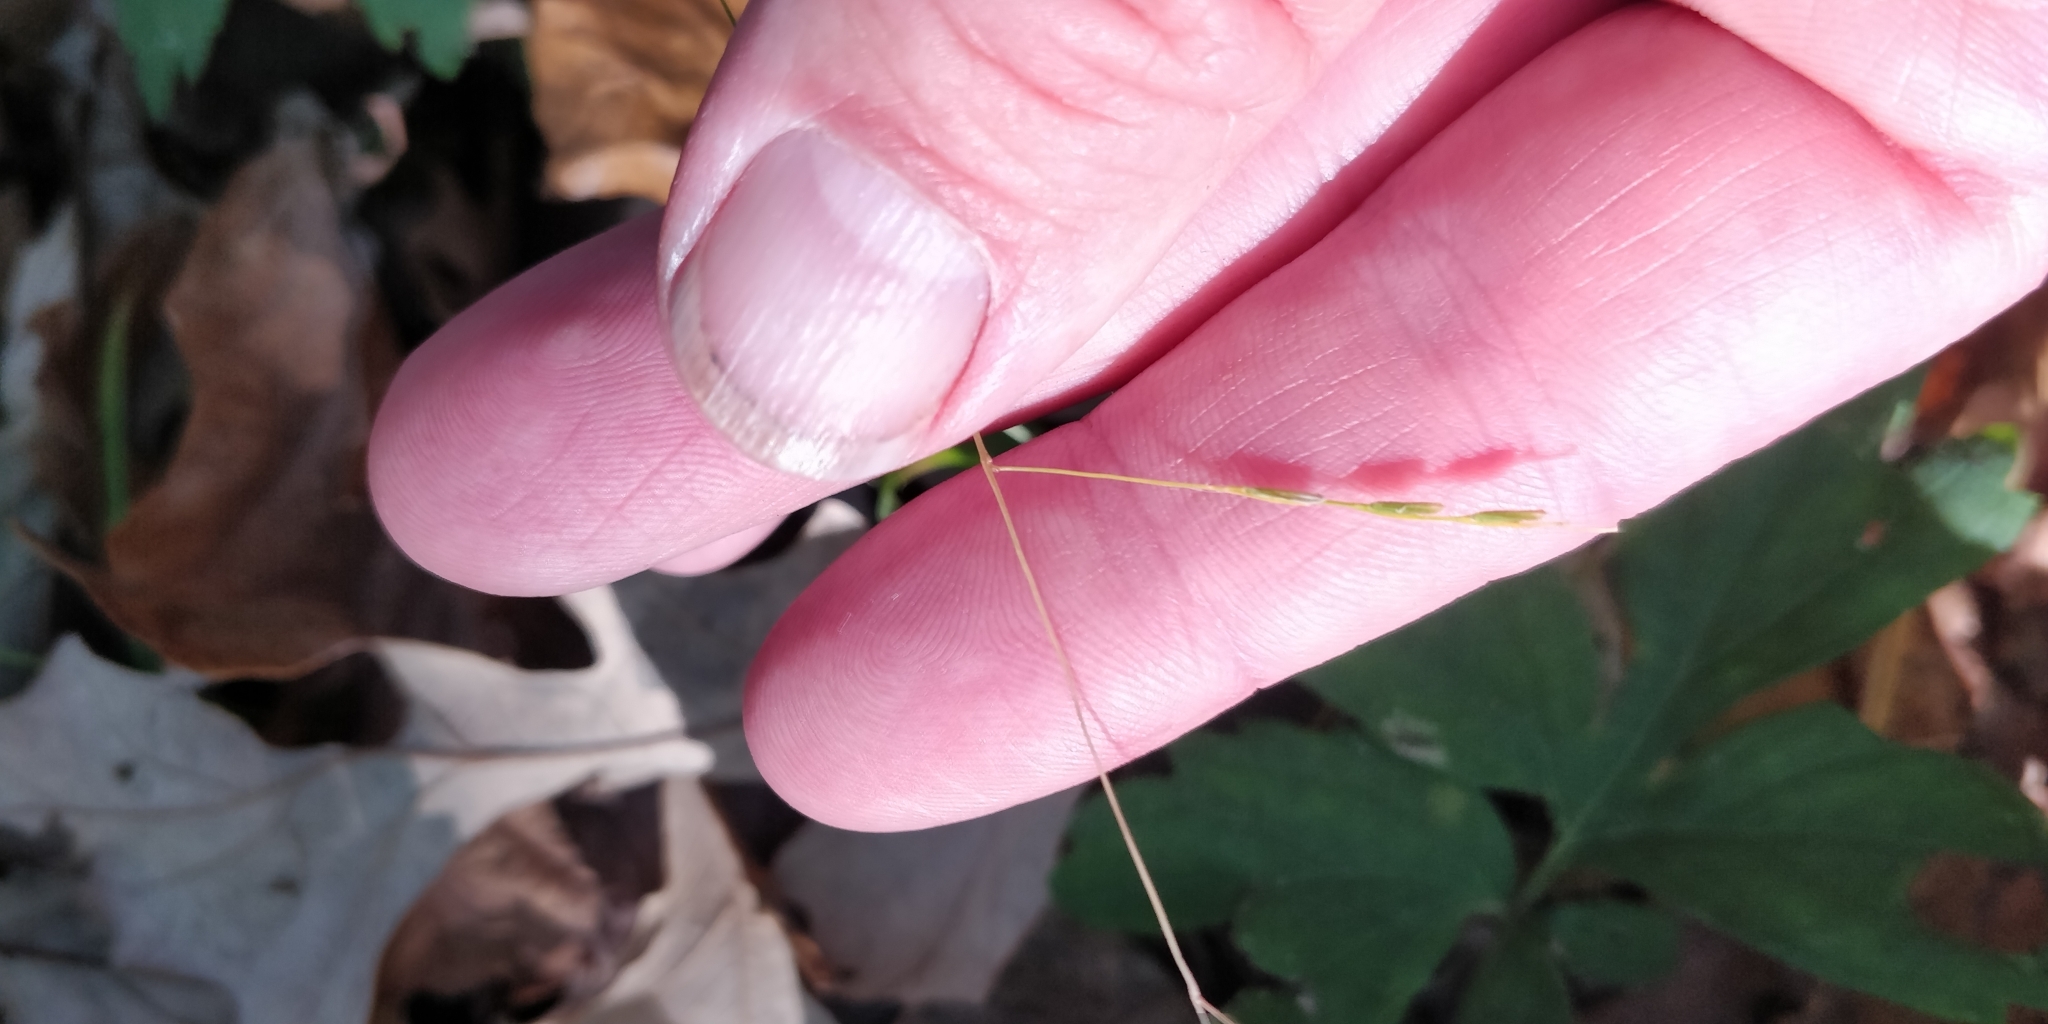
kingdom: Plantae
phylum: Tracheophyta
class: Liliopsida
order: Poales
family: Poaceae
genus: Leersia
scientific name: Leersia virginica
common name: White cutgrass
